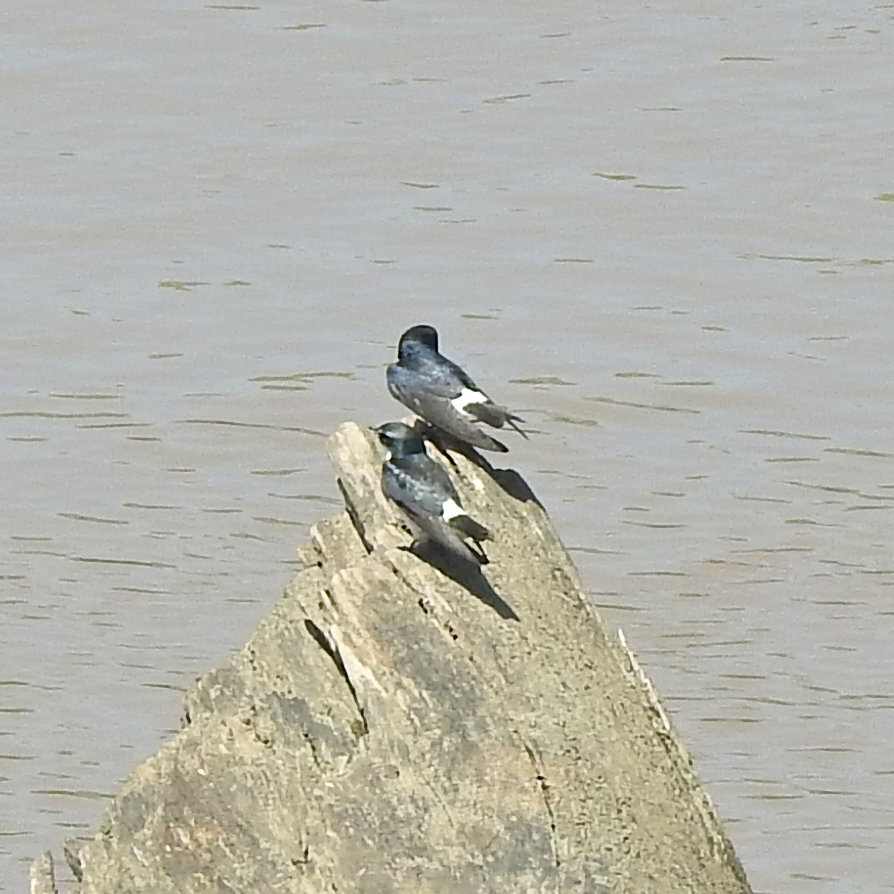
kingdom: Animalia
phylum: Chordata
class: Aves
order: Passeriformes
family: Hirundinidae
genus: Tachycineta
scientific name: Tachycineta albilinea
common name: Mangrove swallow
